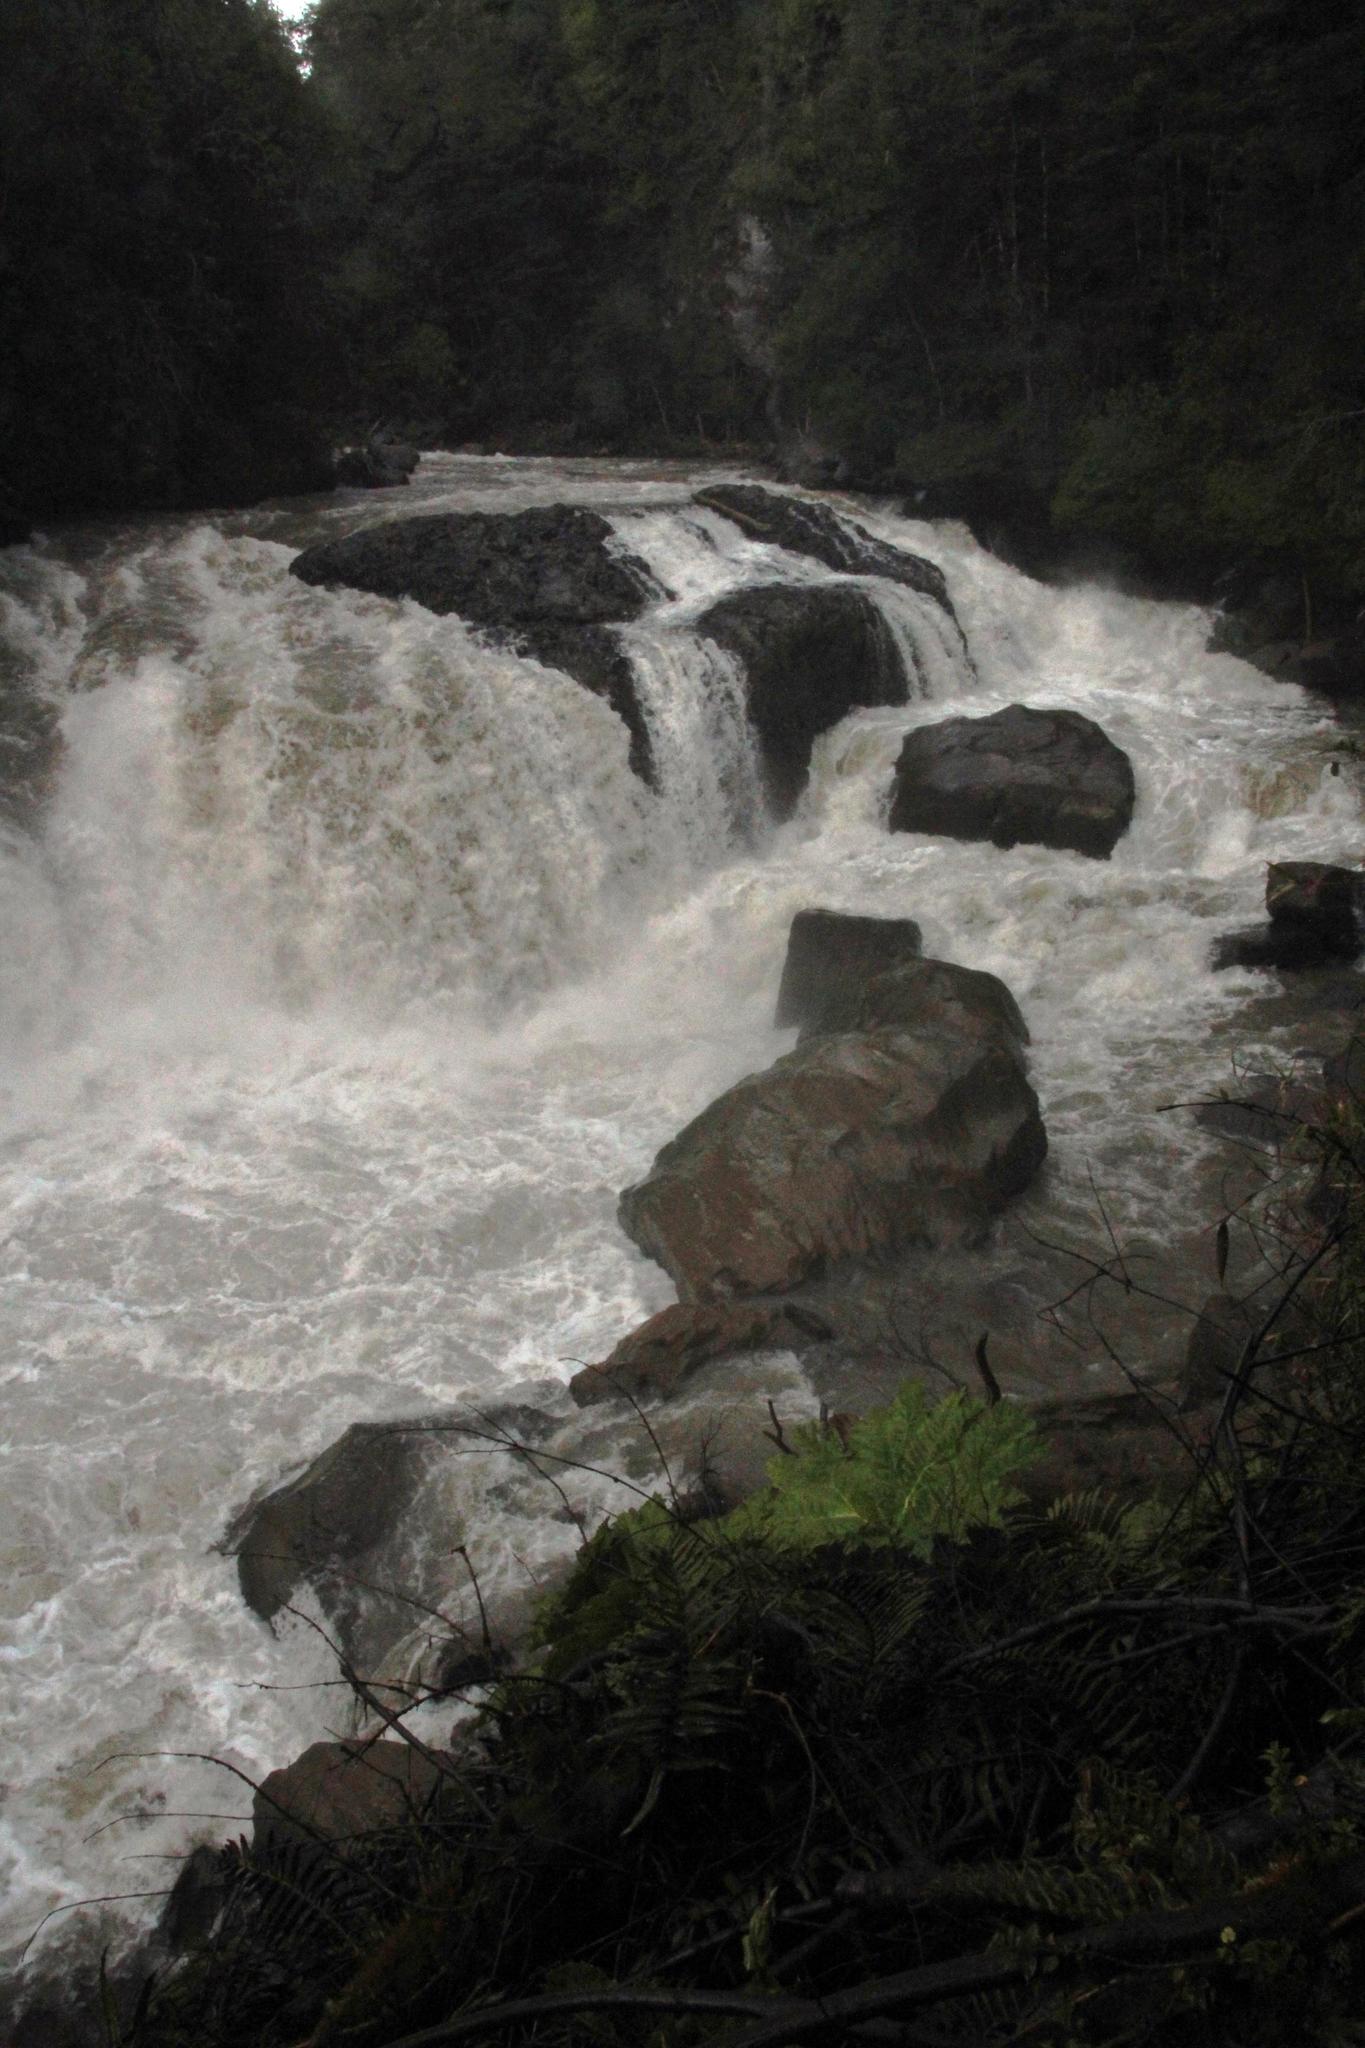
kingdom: Plantae
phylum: Tracheophyta
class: Magnoliopsida
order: Gunnerales
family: Gunneraceae
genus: Gunnera
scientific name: Gunnera tinctoria
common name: Giant-rhubarb
